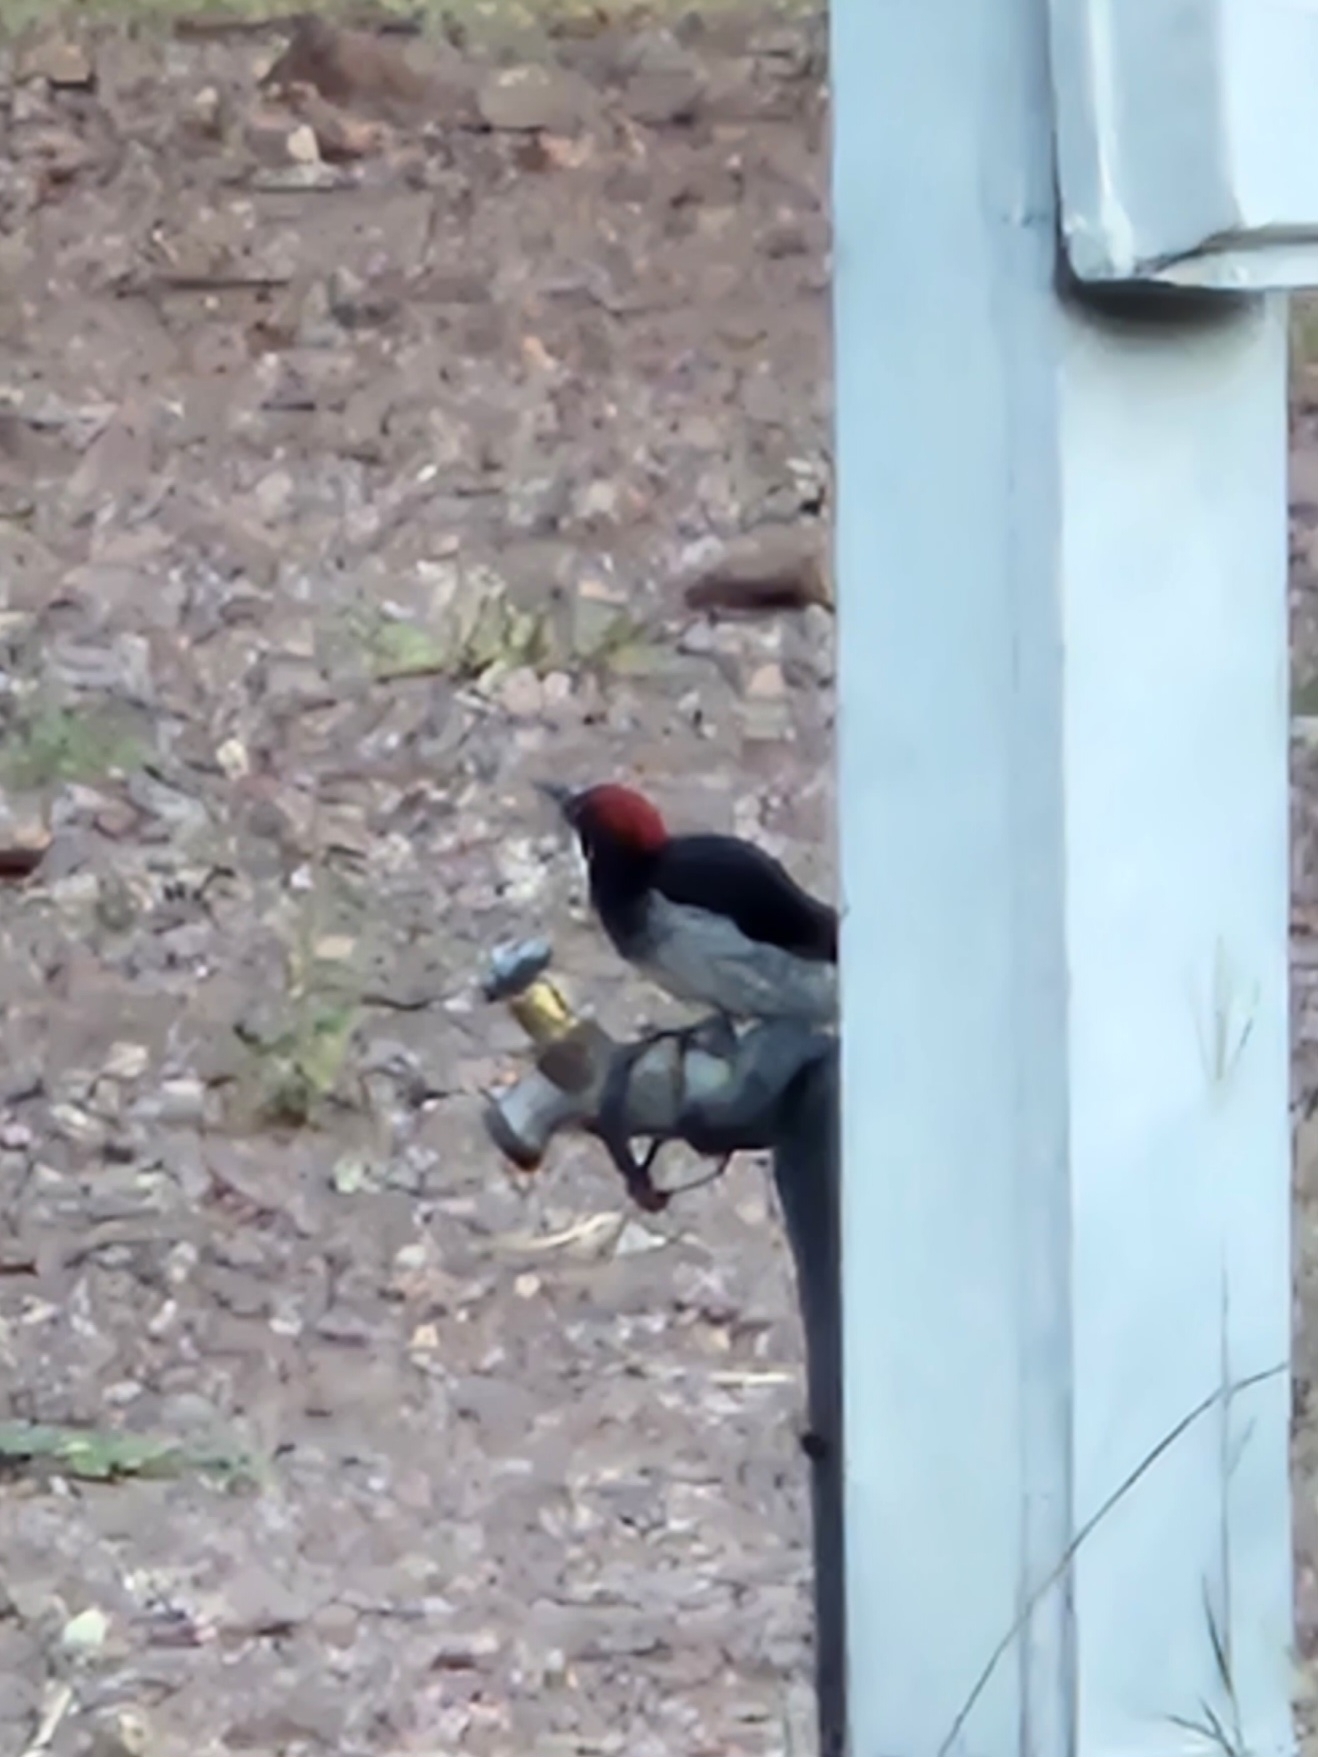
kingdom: Animalia
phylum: Chordata
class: Aves
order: Piciformes
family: Picidae
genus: Melanerpes
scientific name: Melanerpes formicivorus
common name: Acorn woodpecker
